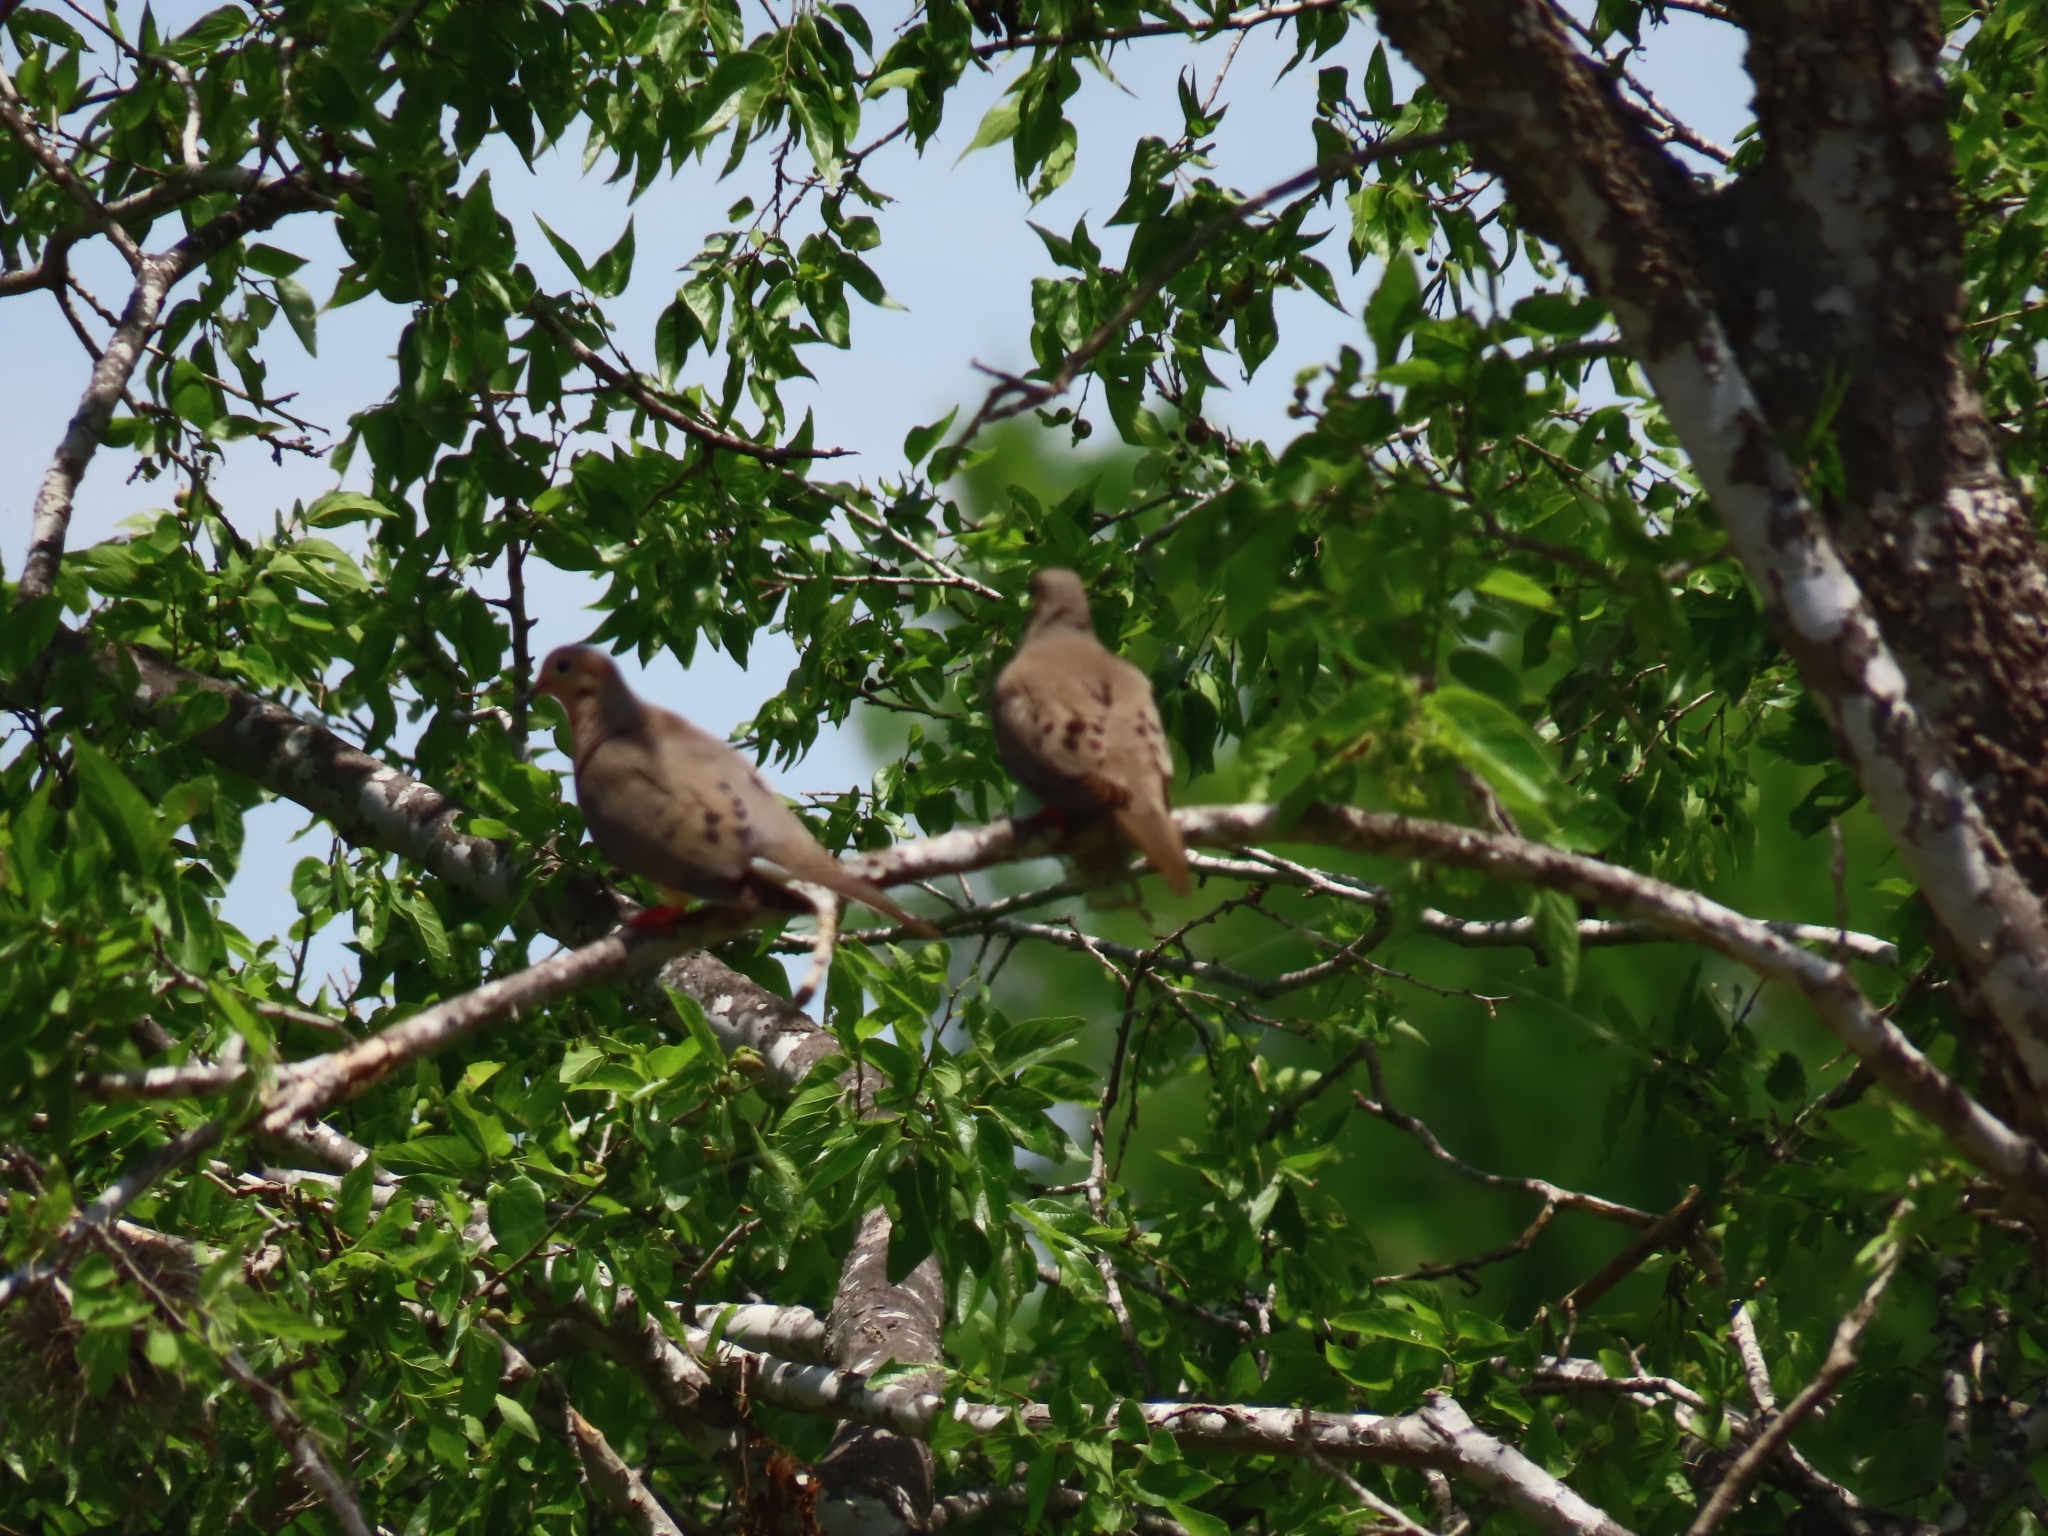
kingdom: Animalia
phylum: Chordata
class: Aves
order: Columbiformes
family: Columbidae
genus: Zenaida
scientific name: Zenaida macroura
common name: Mourning dove
